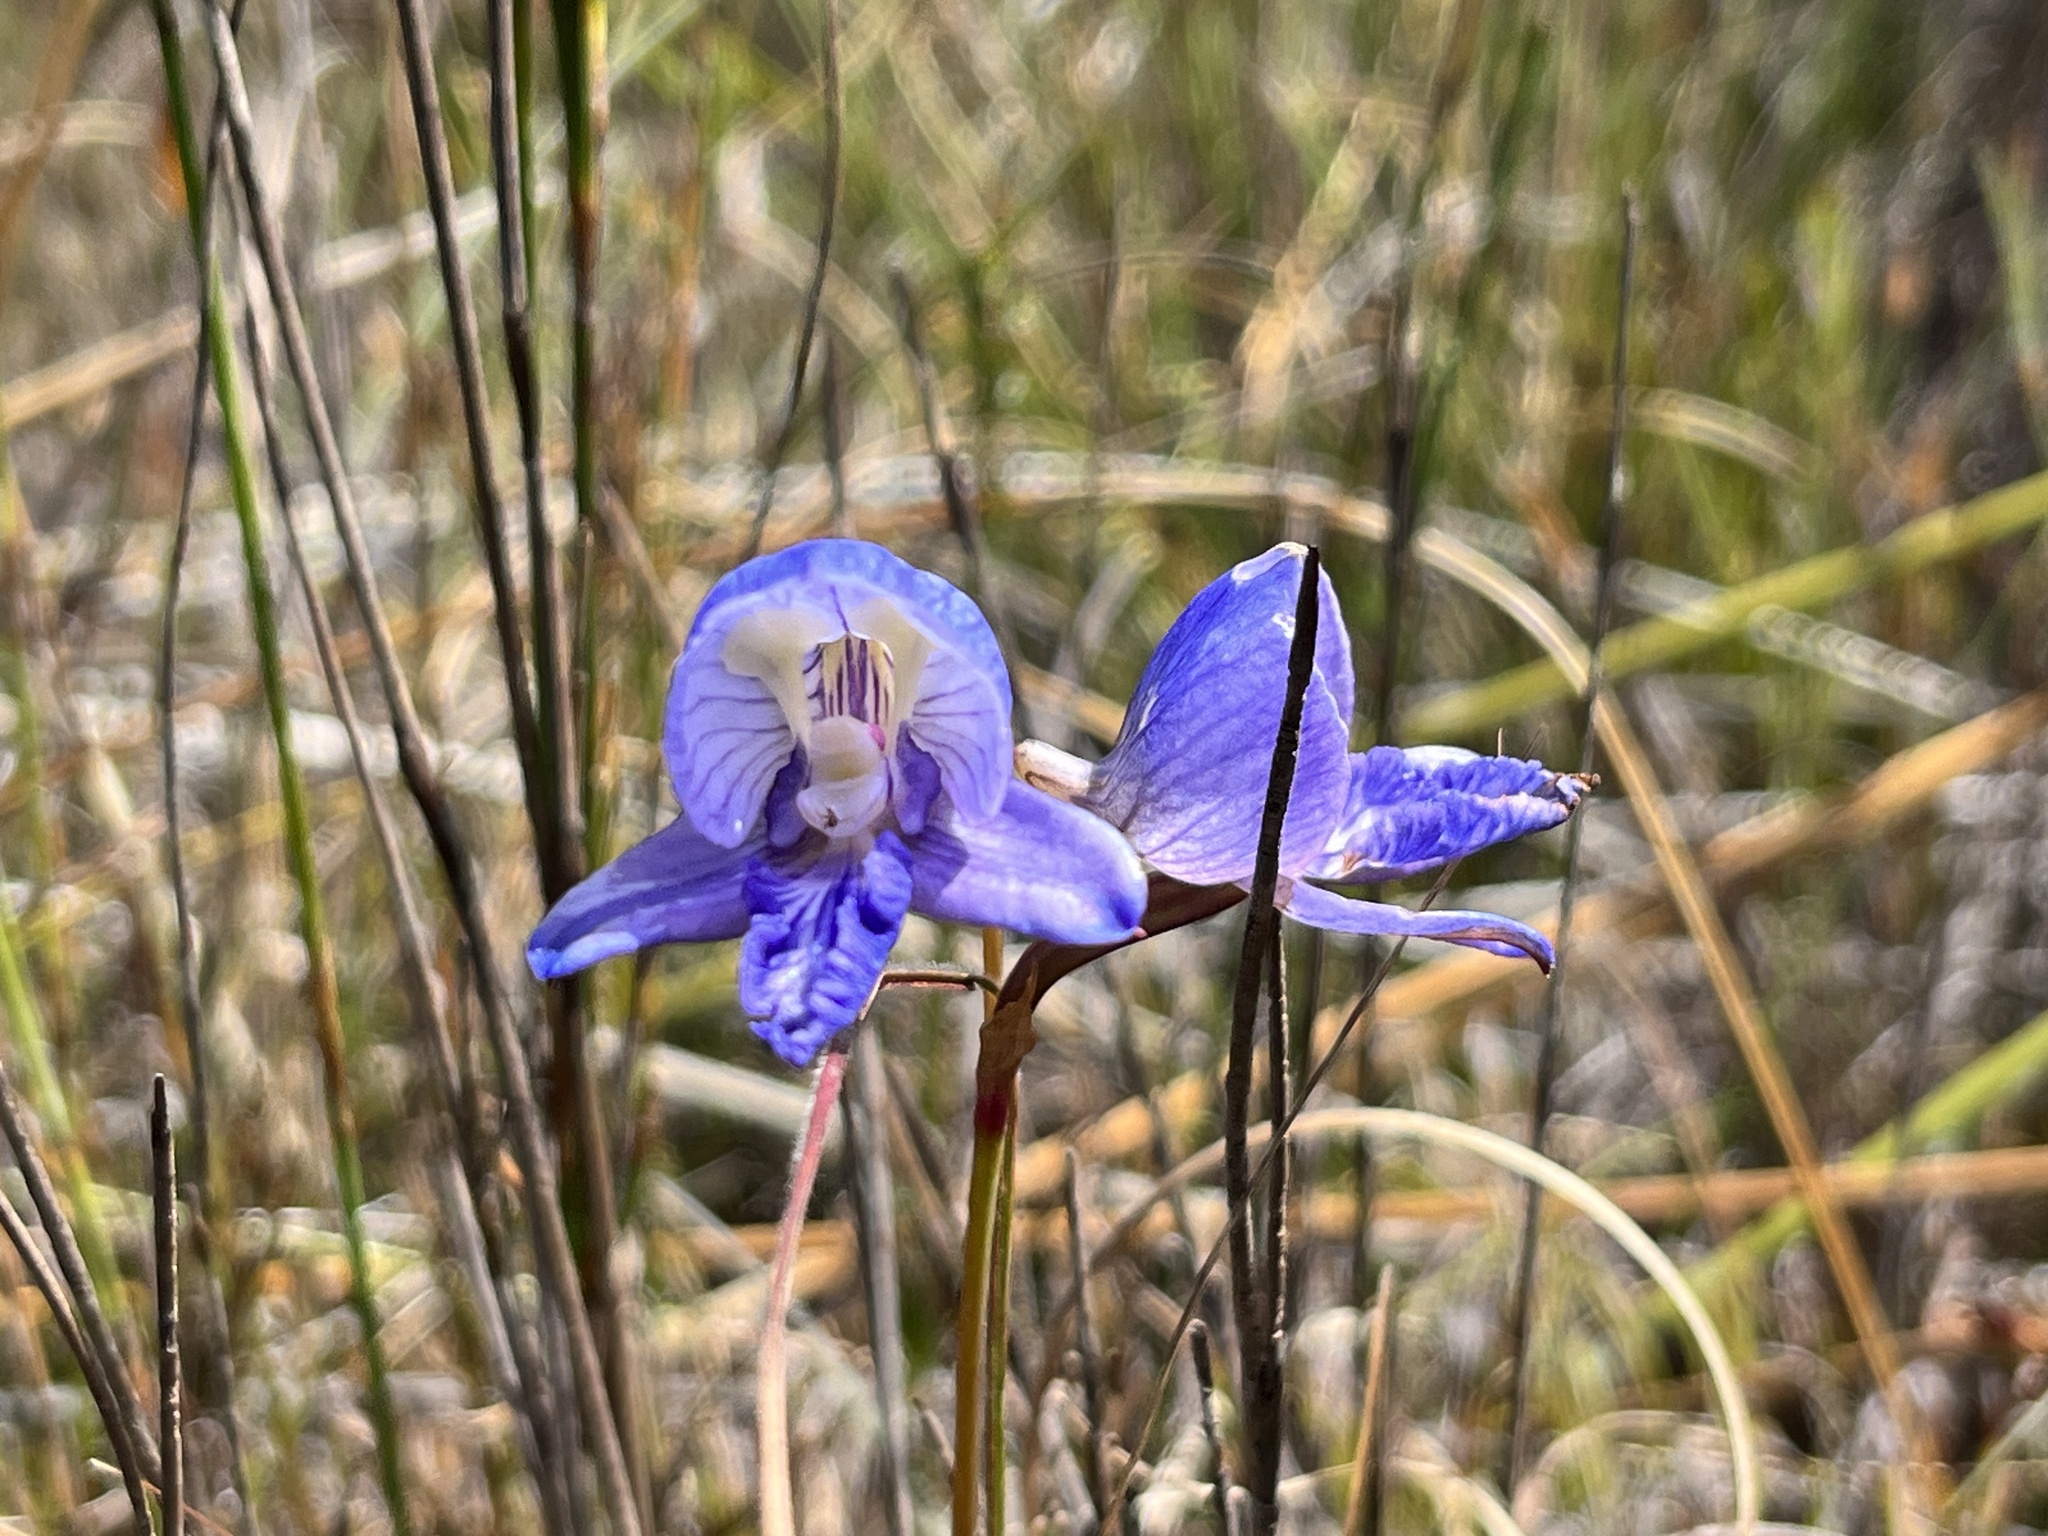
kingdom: Plantae
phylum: Tracheophyta
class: Liliopsida
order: Asparagales
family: Orchidaceae
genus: Disa
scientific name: Disa purpurascens
